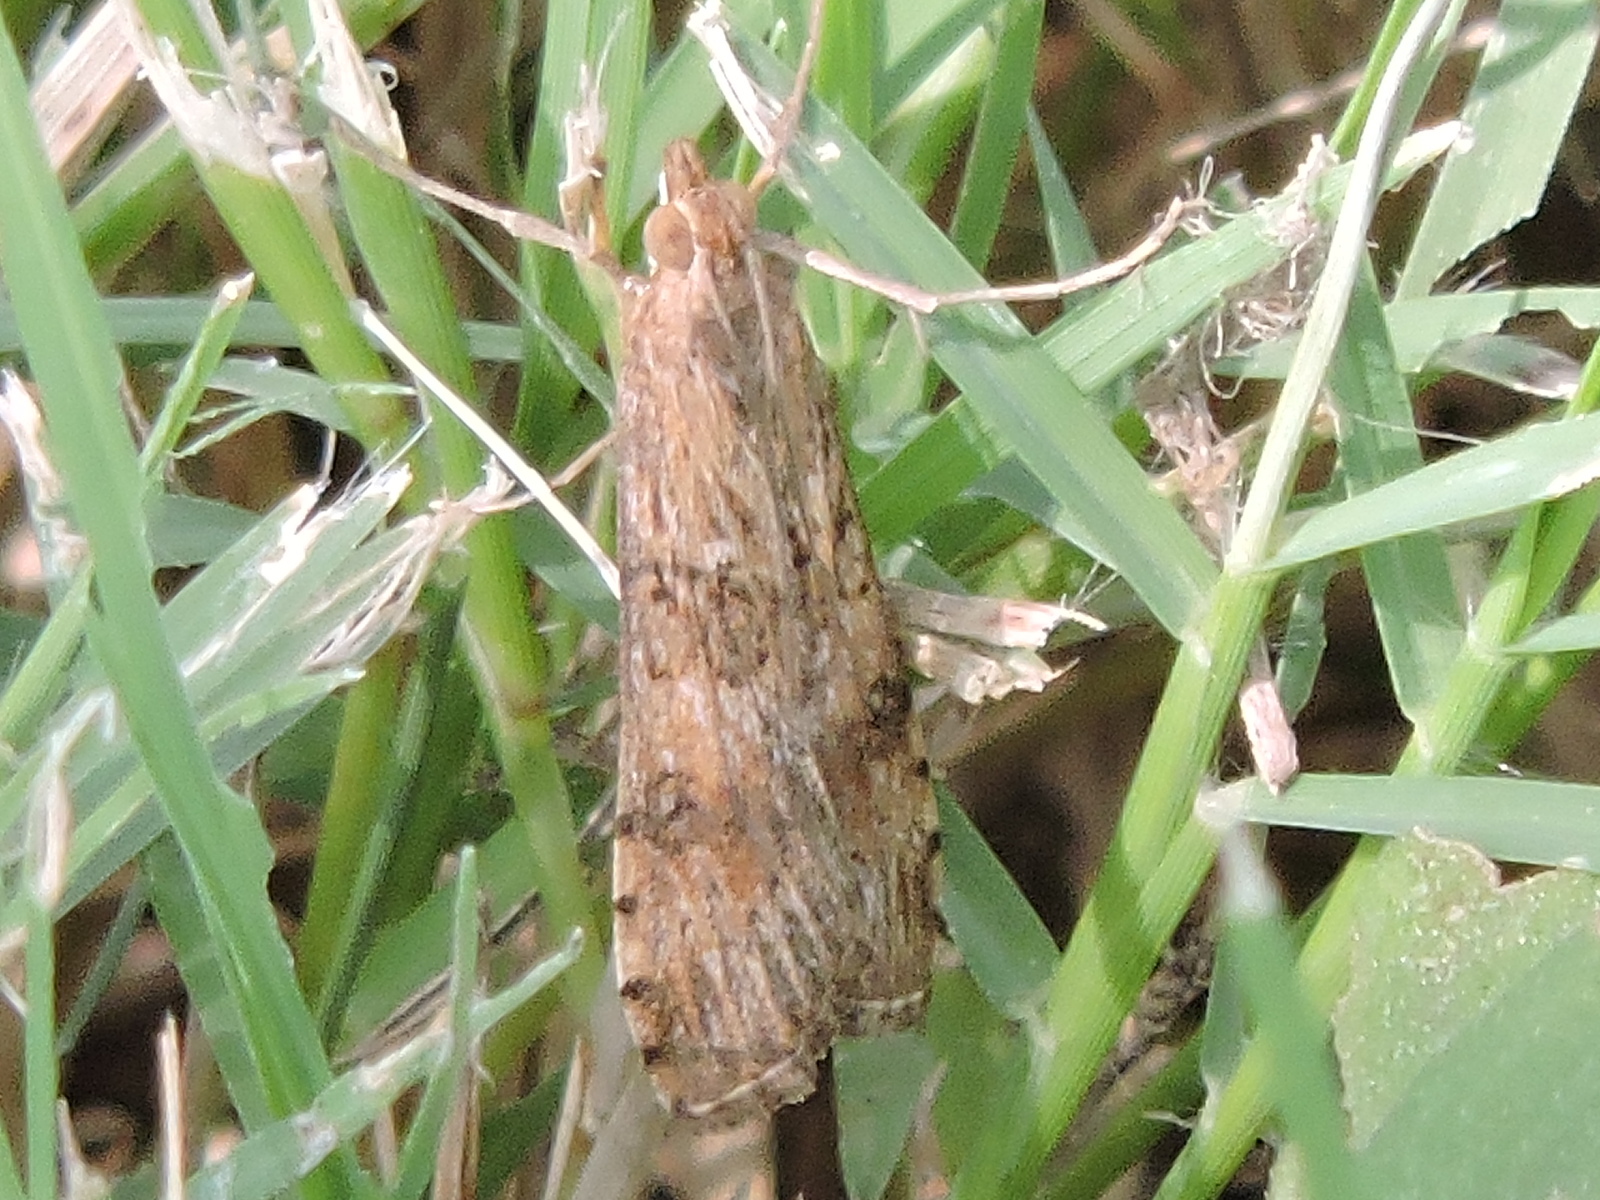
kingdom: Animalia
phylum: Arthropoda
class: Insecta
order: Lepidoptera
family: Crambidae
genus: Nomophila
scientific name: Nomophila nearctica
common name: American rush veneer
